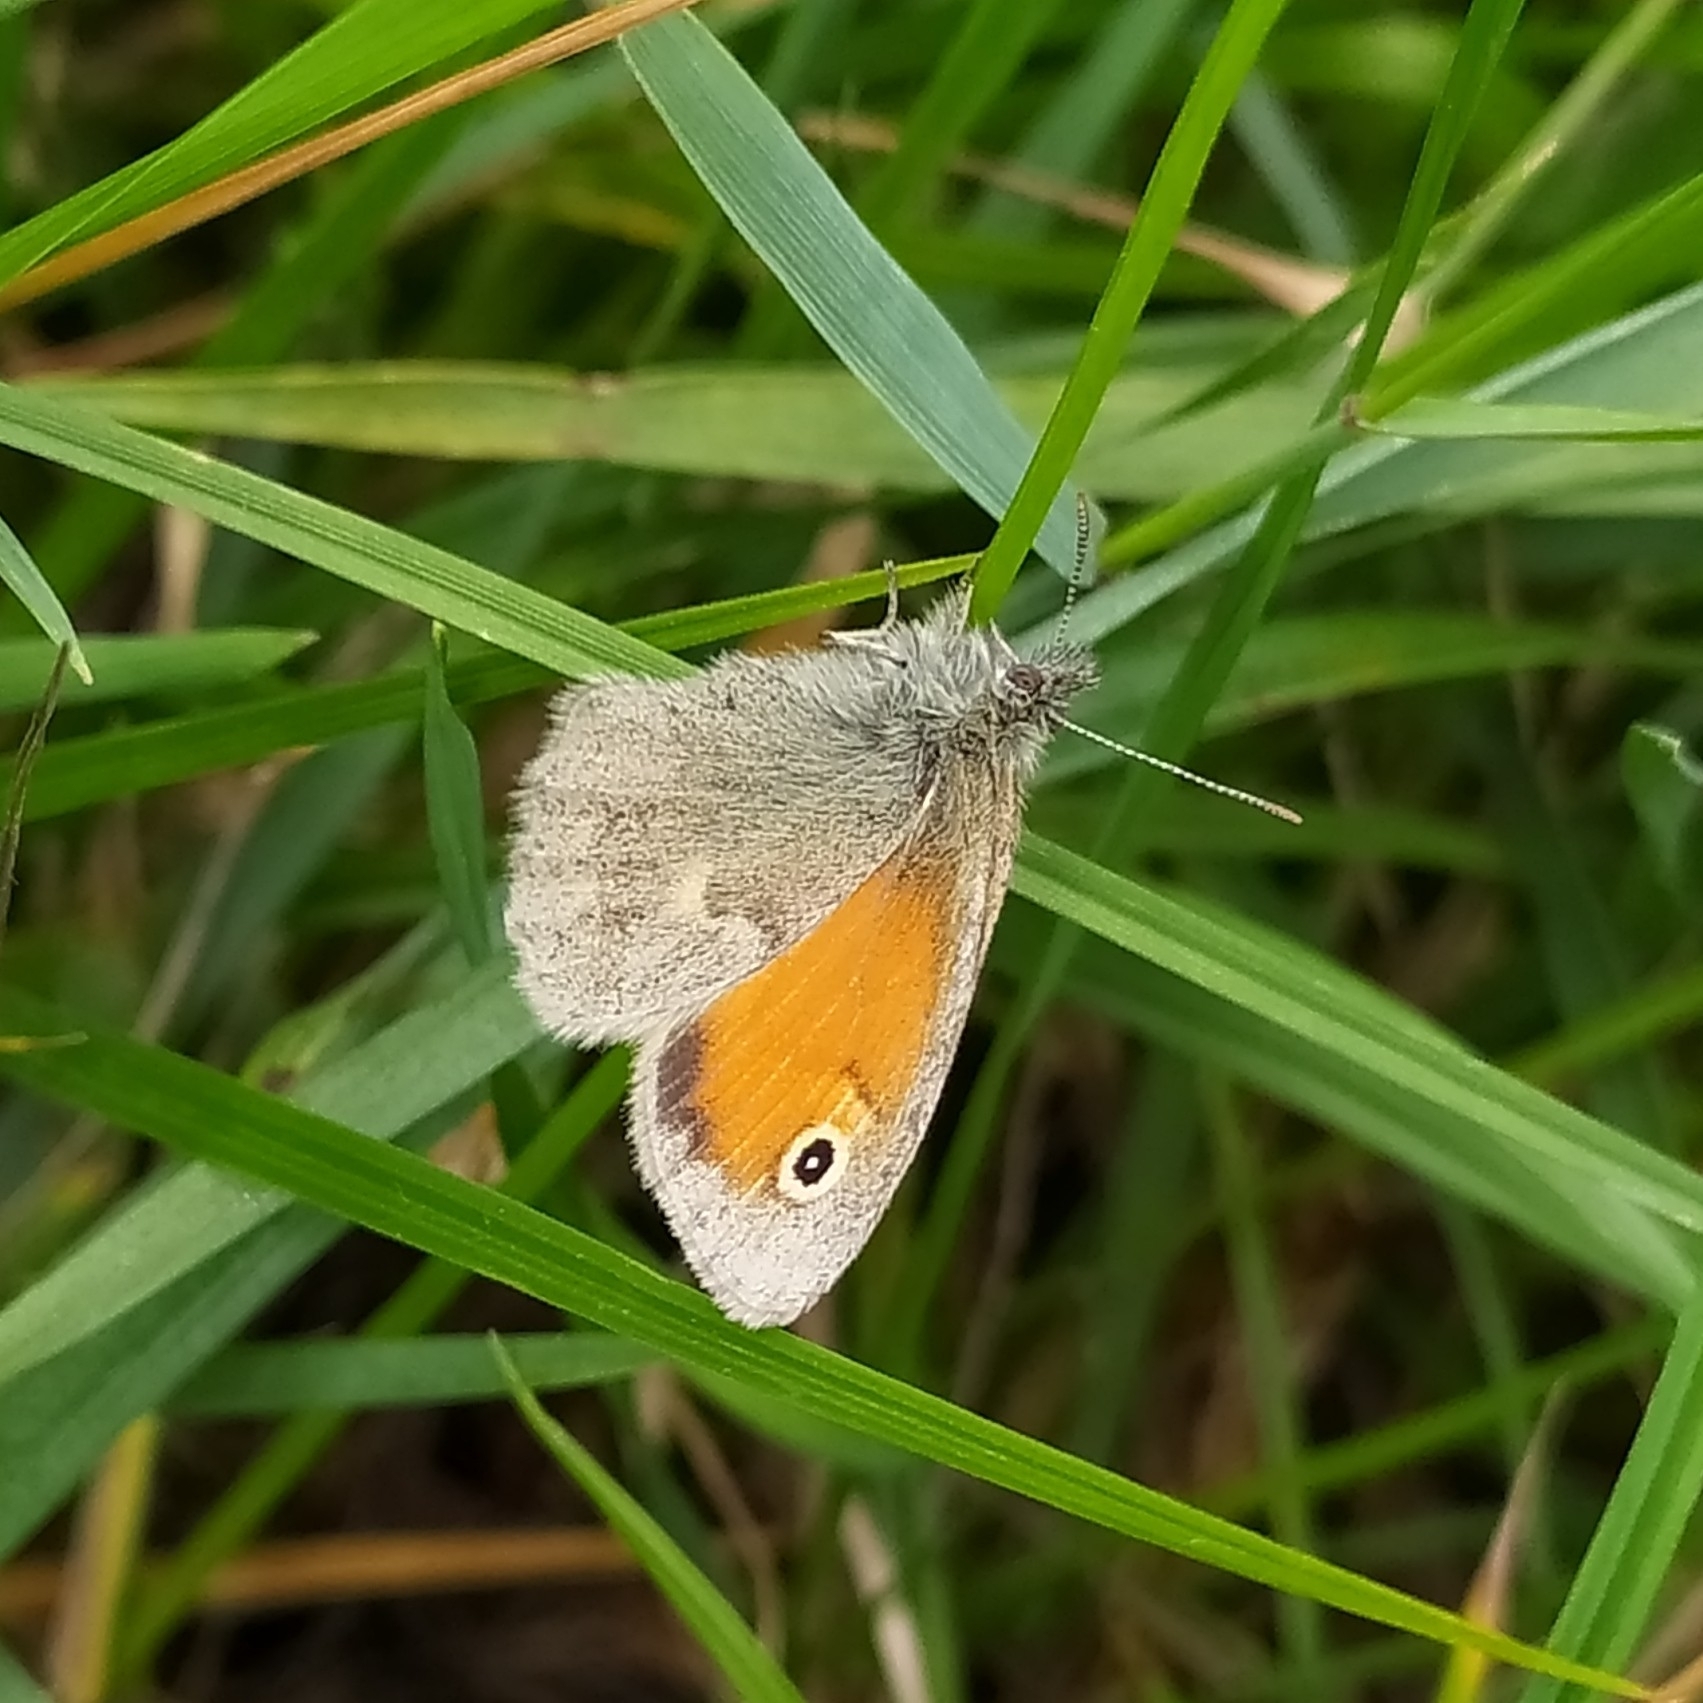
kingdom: Animalia
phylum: Arthropoda
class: Insecta
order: Lepidoptera
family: Nymphalidae
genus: Coenonympha
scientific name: Coenonympha pamphilus
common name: Small heath
